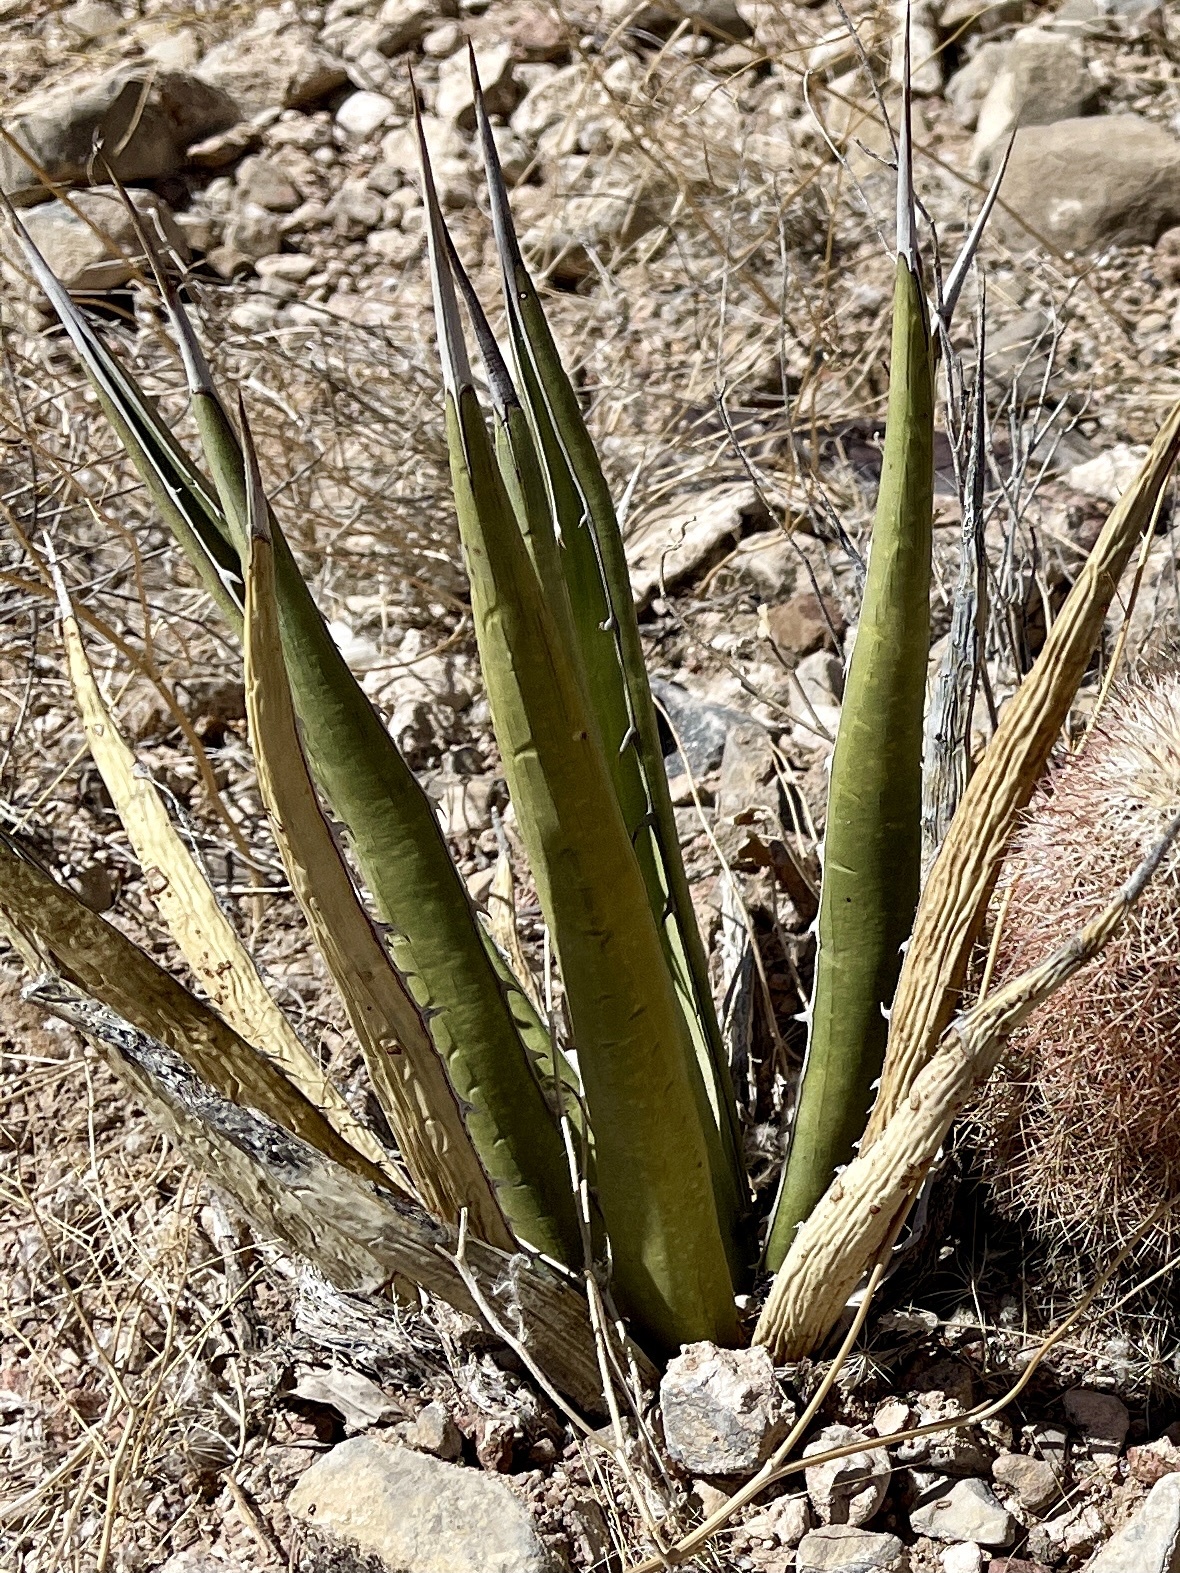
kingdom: Plantae
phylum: Tracheophyta
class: Liliopsida
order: Asparagales
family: Asparagaceae
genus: Agave
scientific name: Agave lechuguilla
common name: Lecheguilla agave
